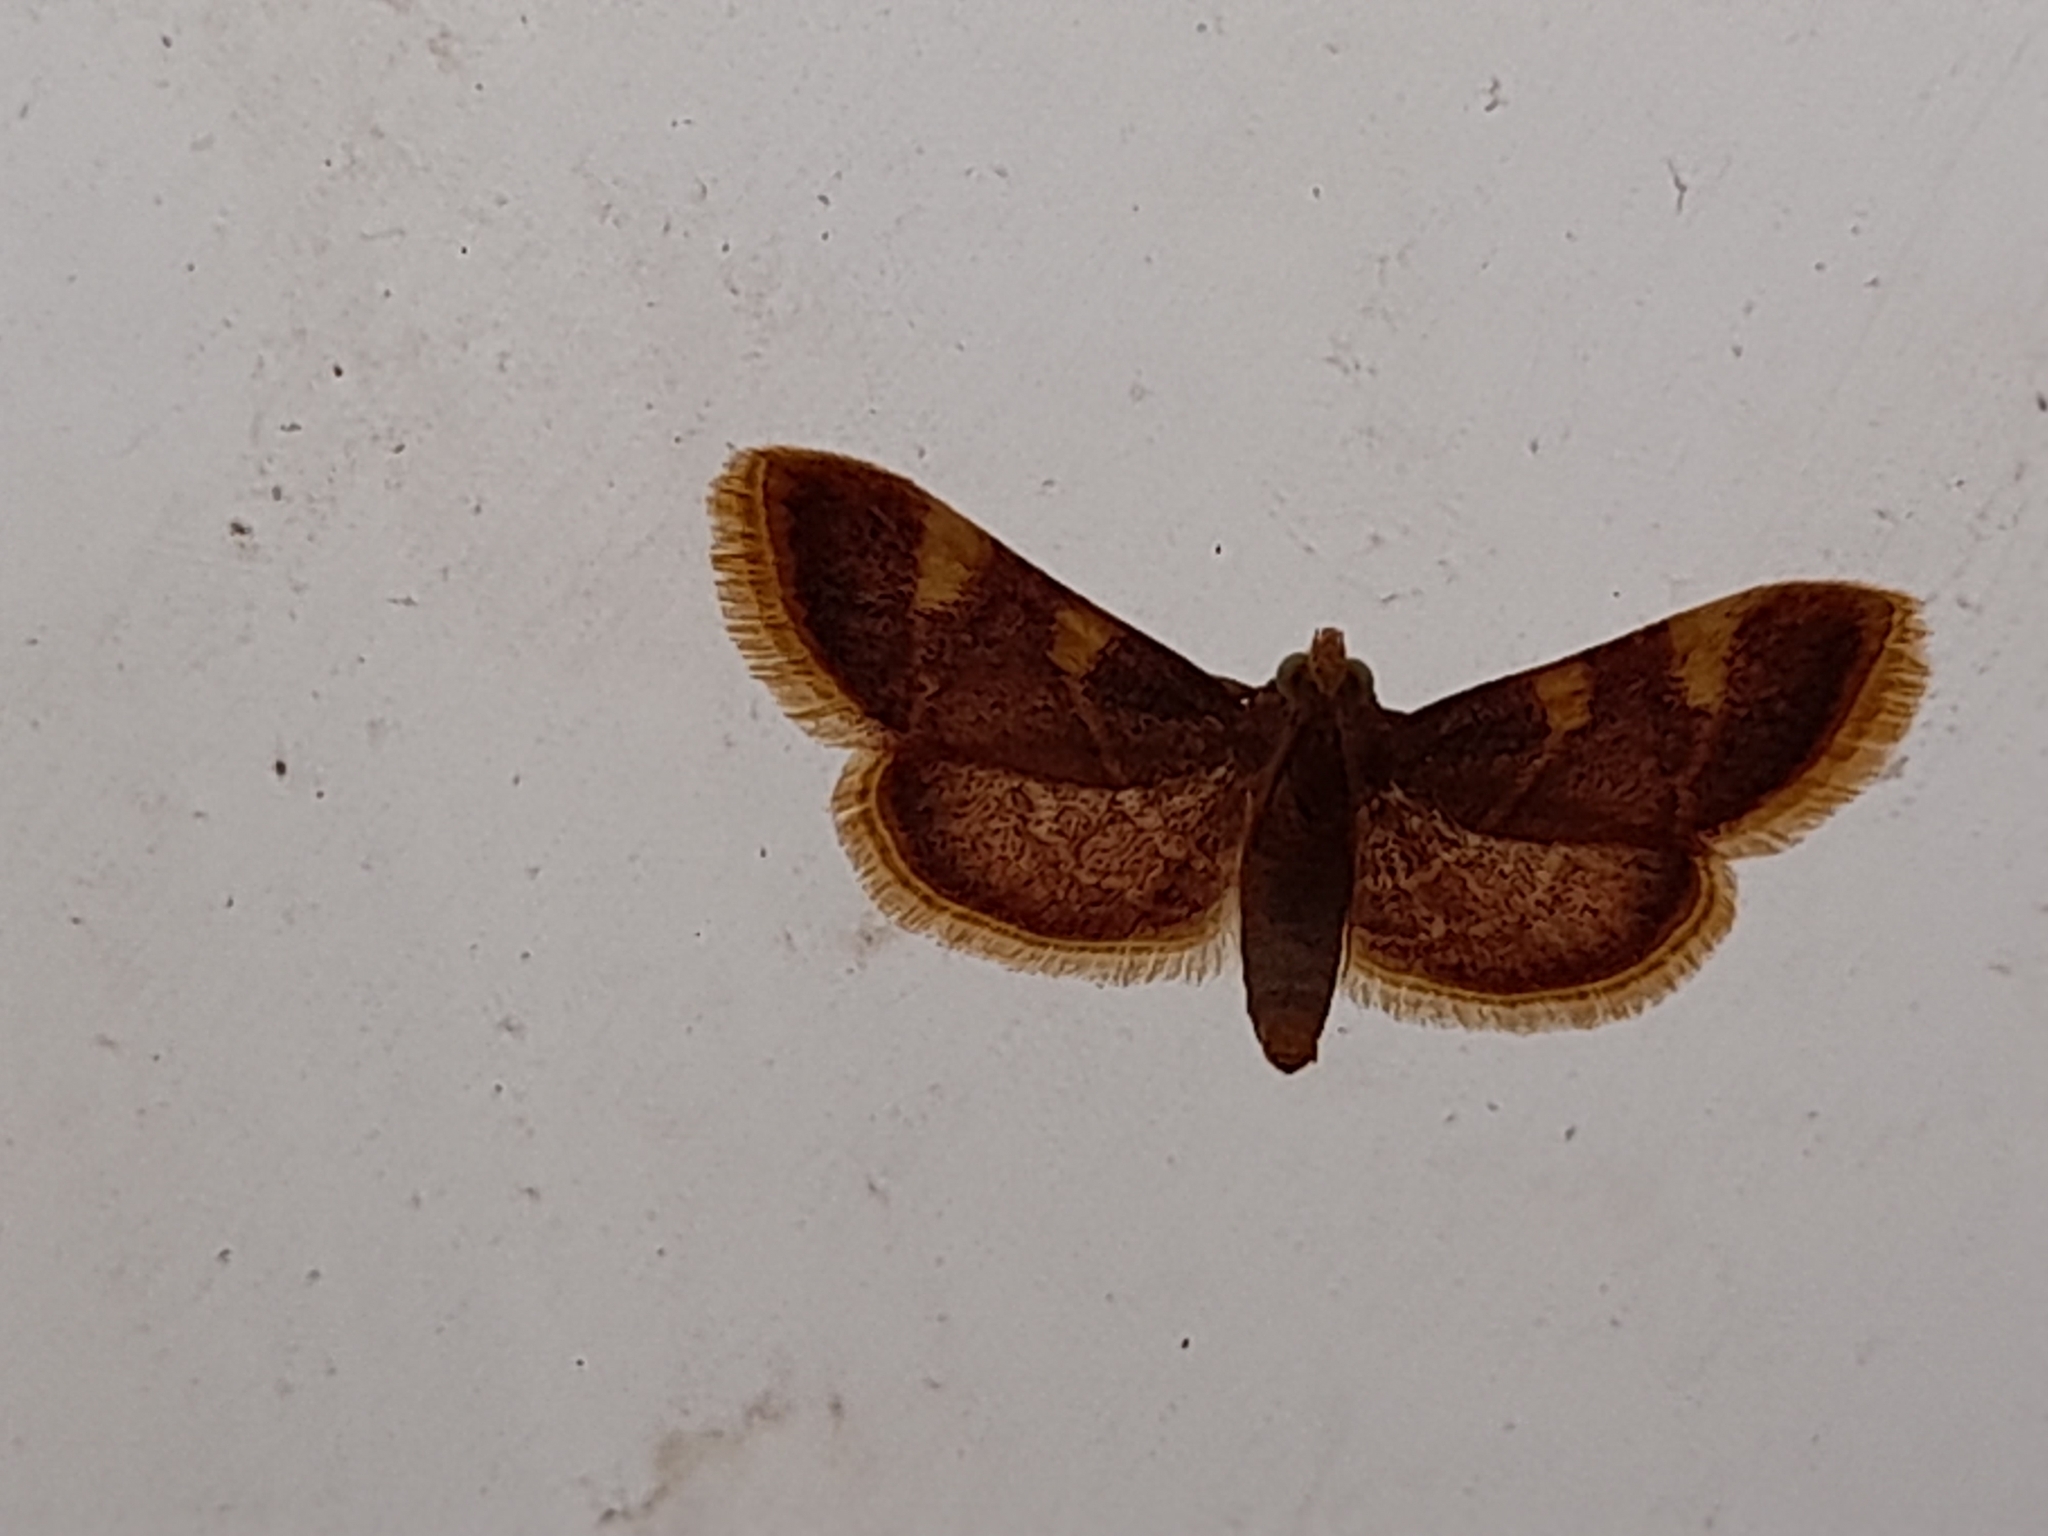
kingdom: Animalia
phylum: Arthropoda
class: Insecta
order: Lepidoptera
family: Pyralidae
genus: Hypsopygia
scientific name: Hypsopygia costalis
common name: Gold triangle
